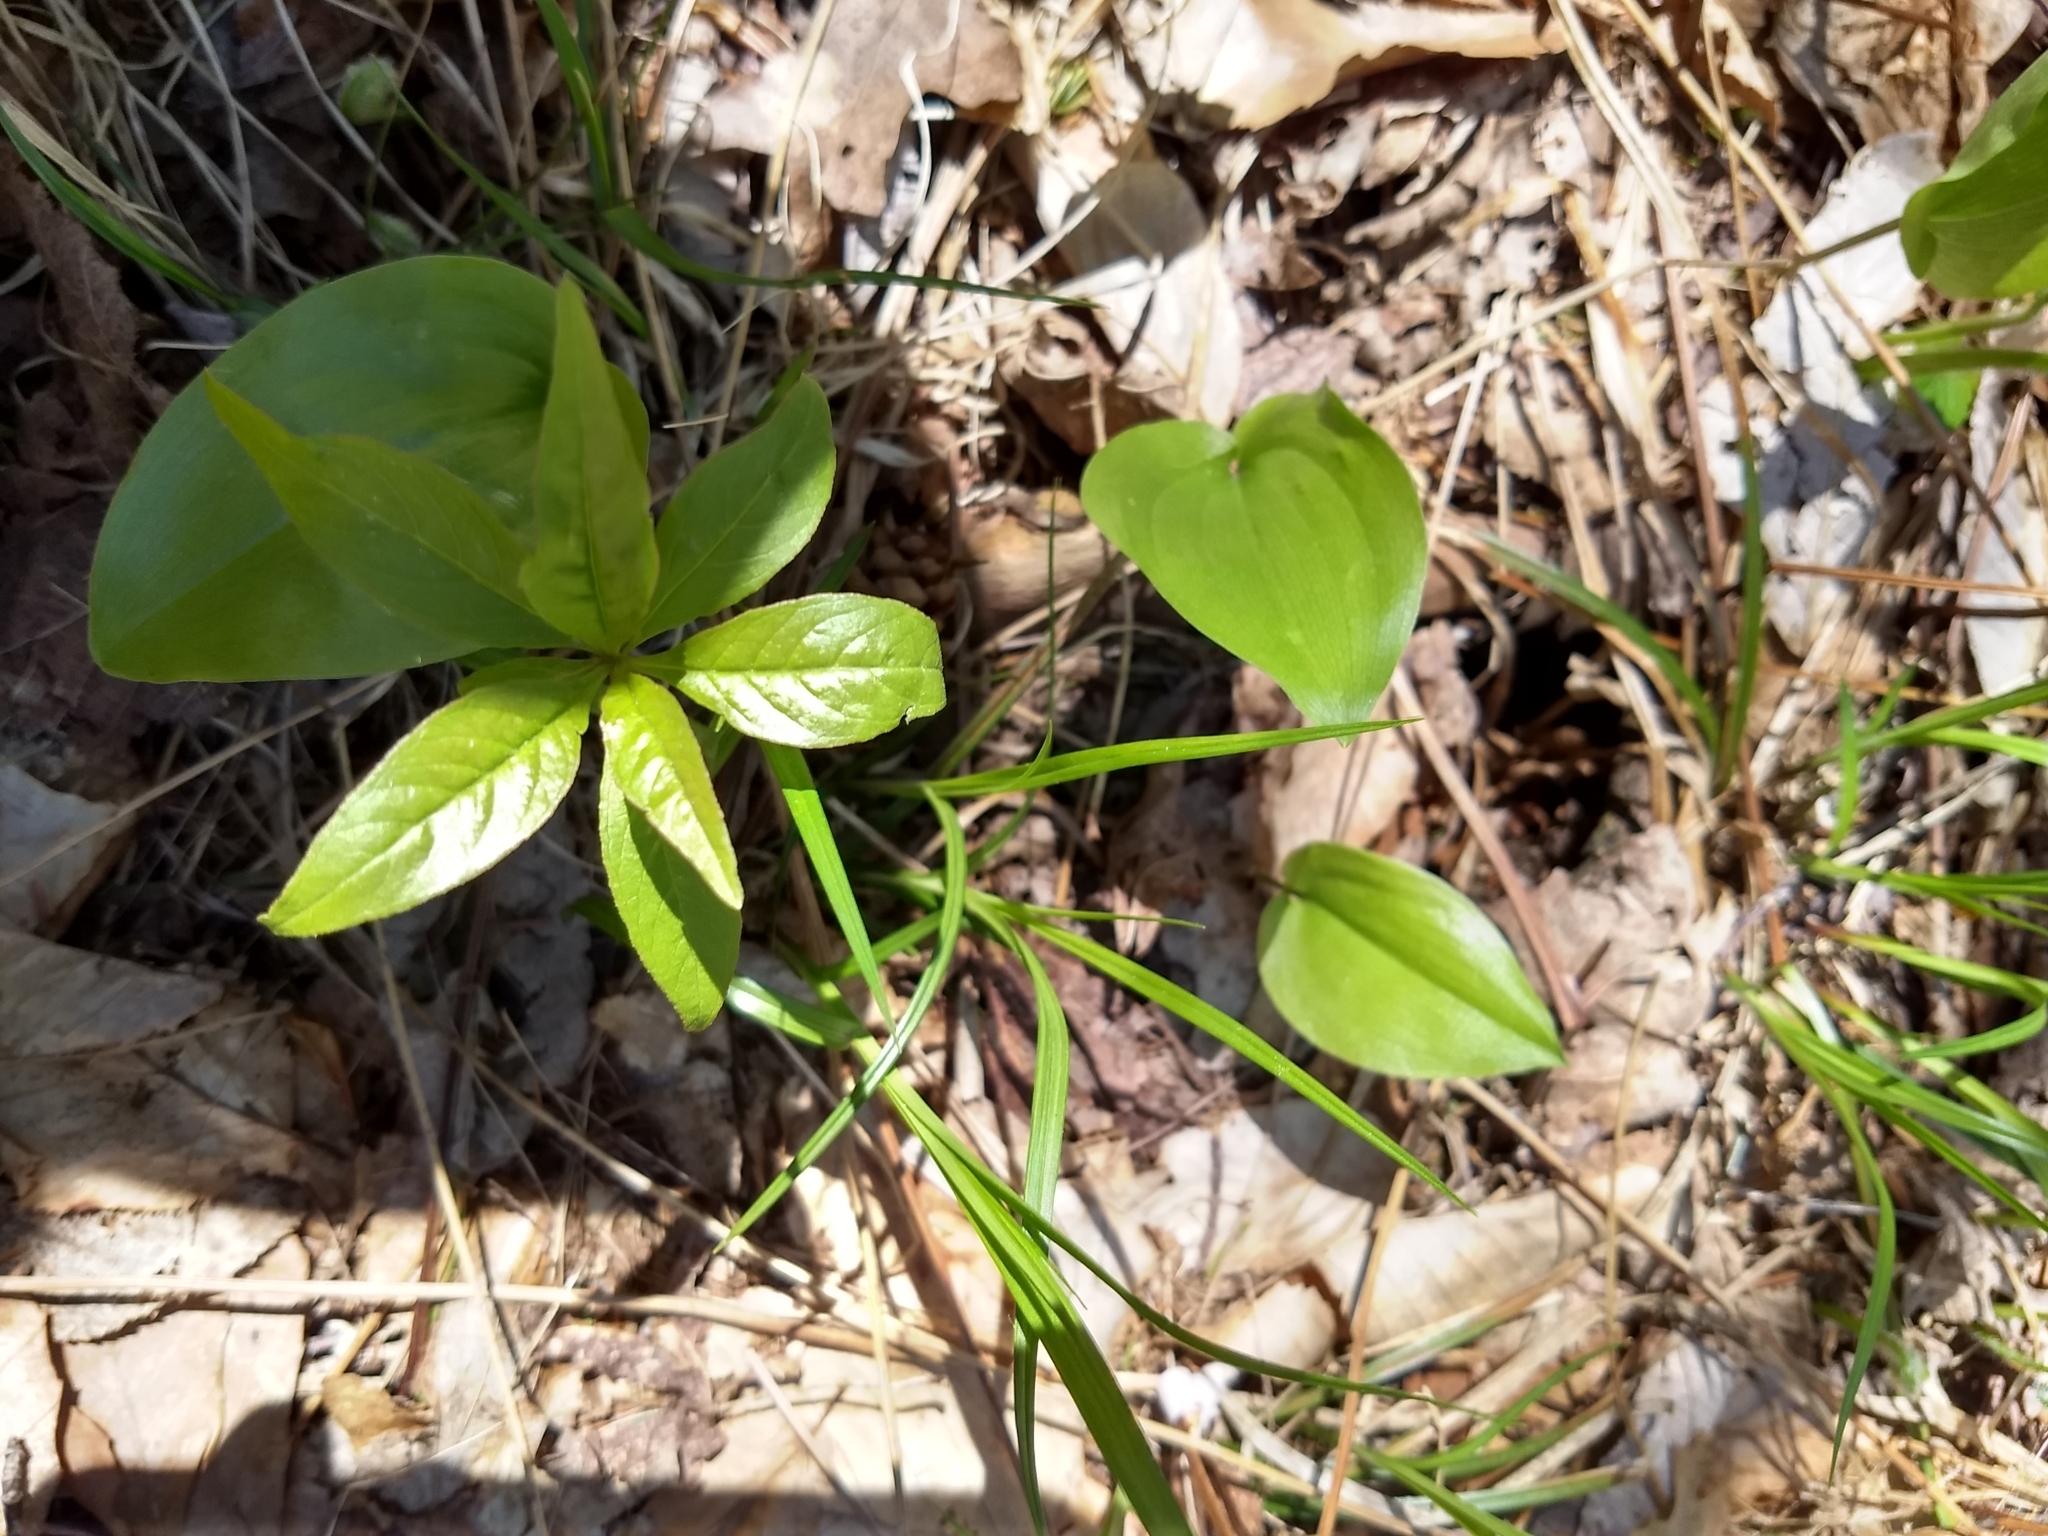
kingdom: Plantae
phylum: Tracheophyta
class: Magnoliopsida
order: Ericales
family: Primulaceae
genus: Lysimachia
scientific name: Lysimachia borealis
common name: American starflower
